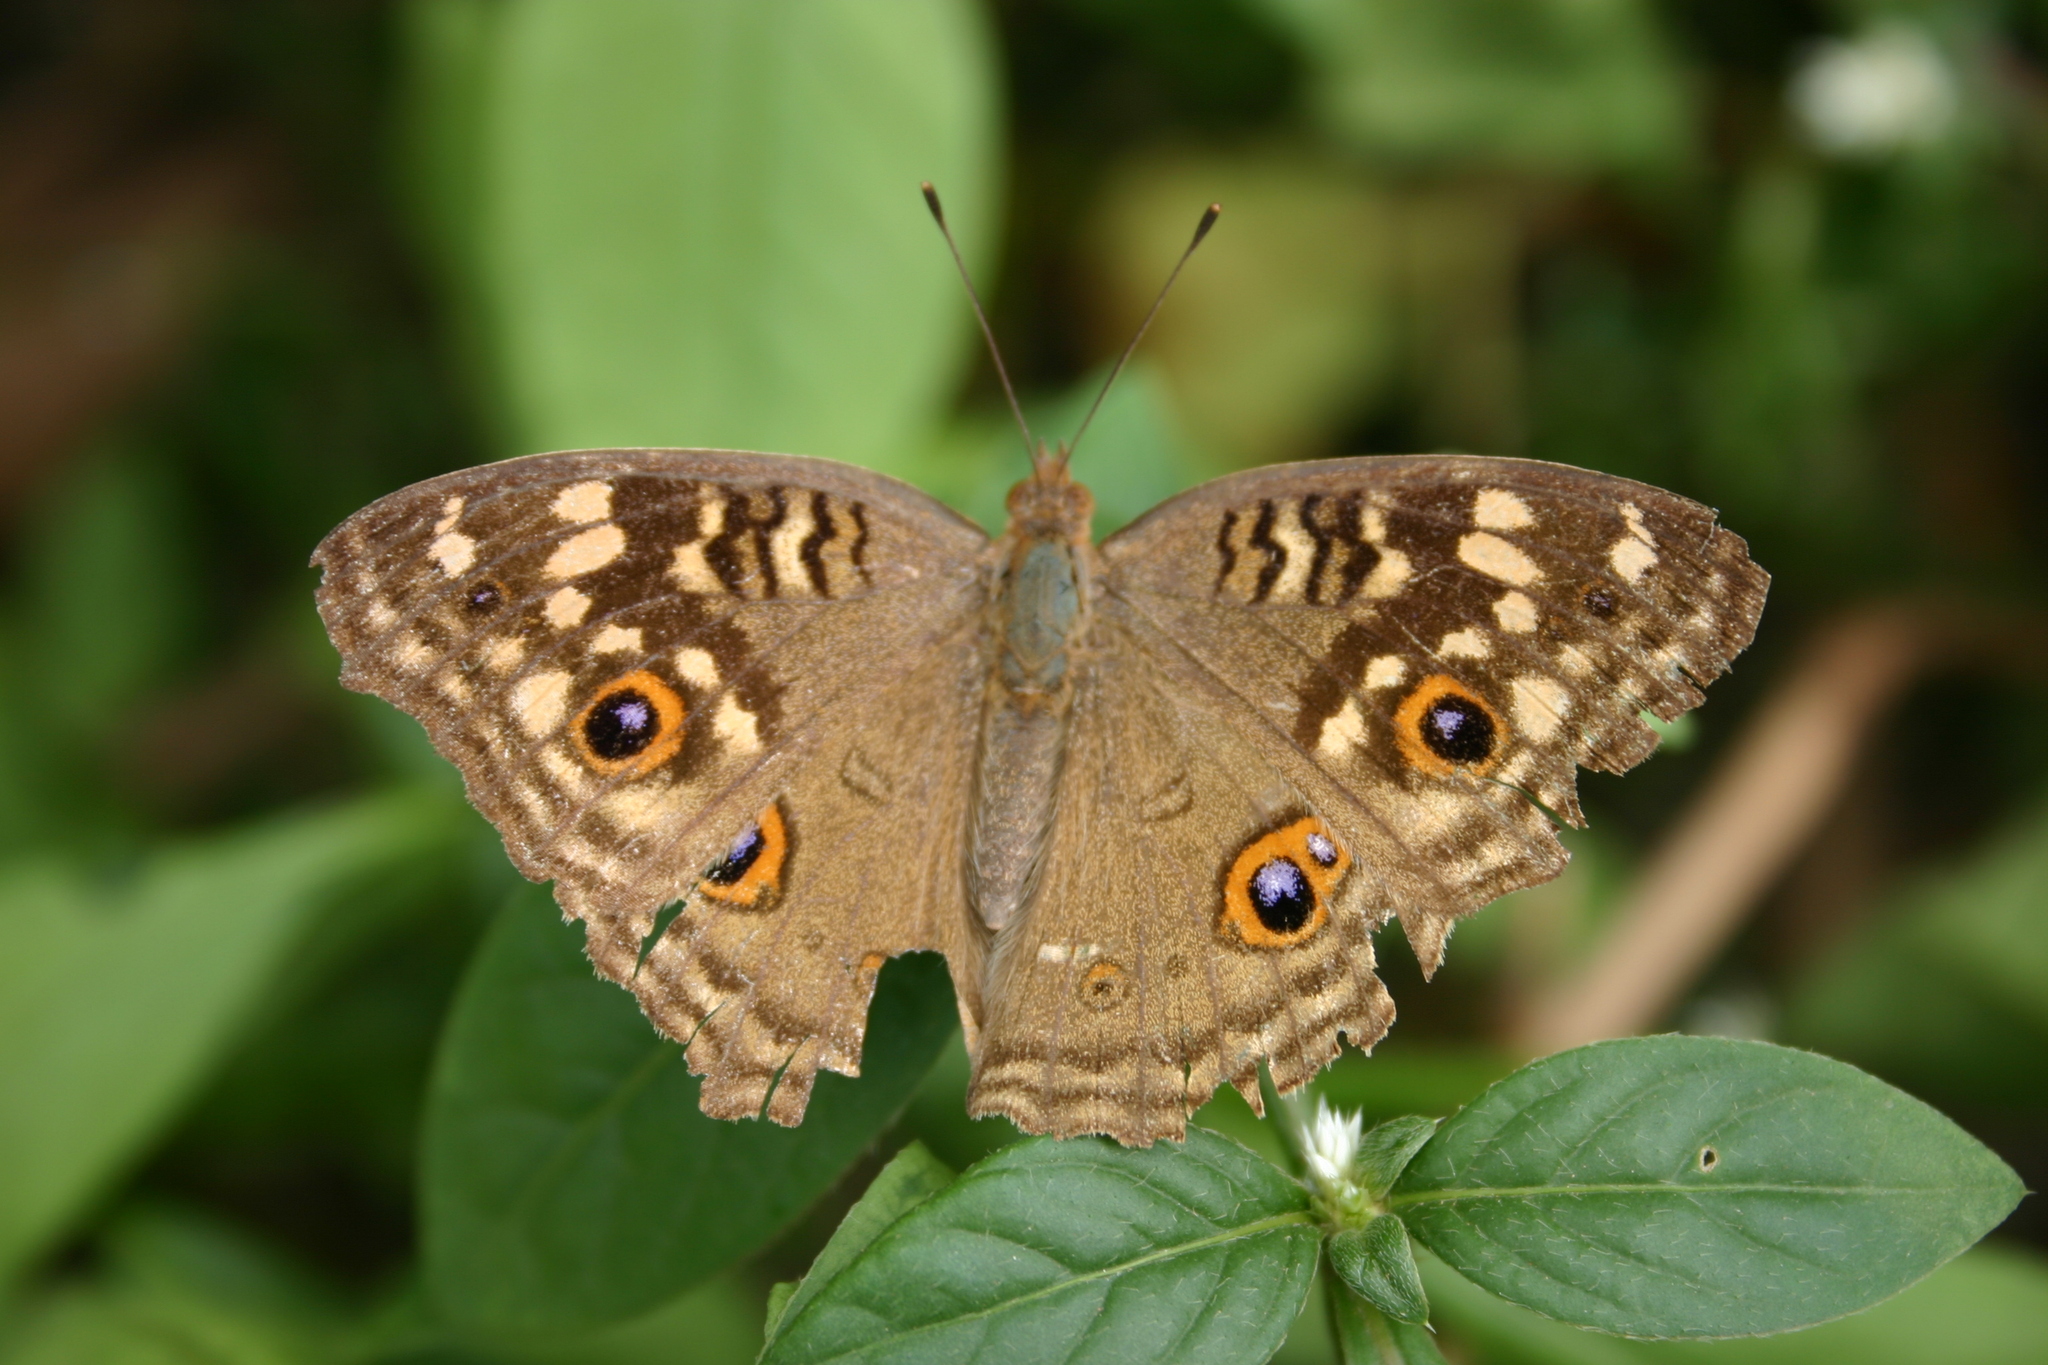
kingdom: Animalia
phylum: Arthropoda
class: Insecta
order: Lepidoptera
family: Nymphalidae
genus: Junonia
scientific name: Junonia lemonias
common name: Lemon pansy
